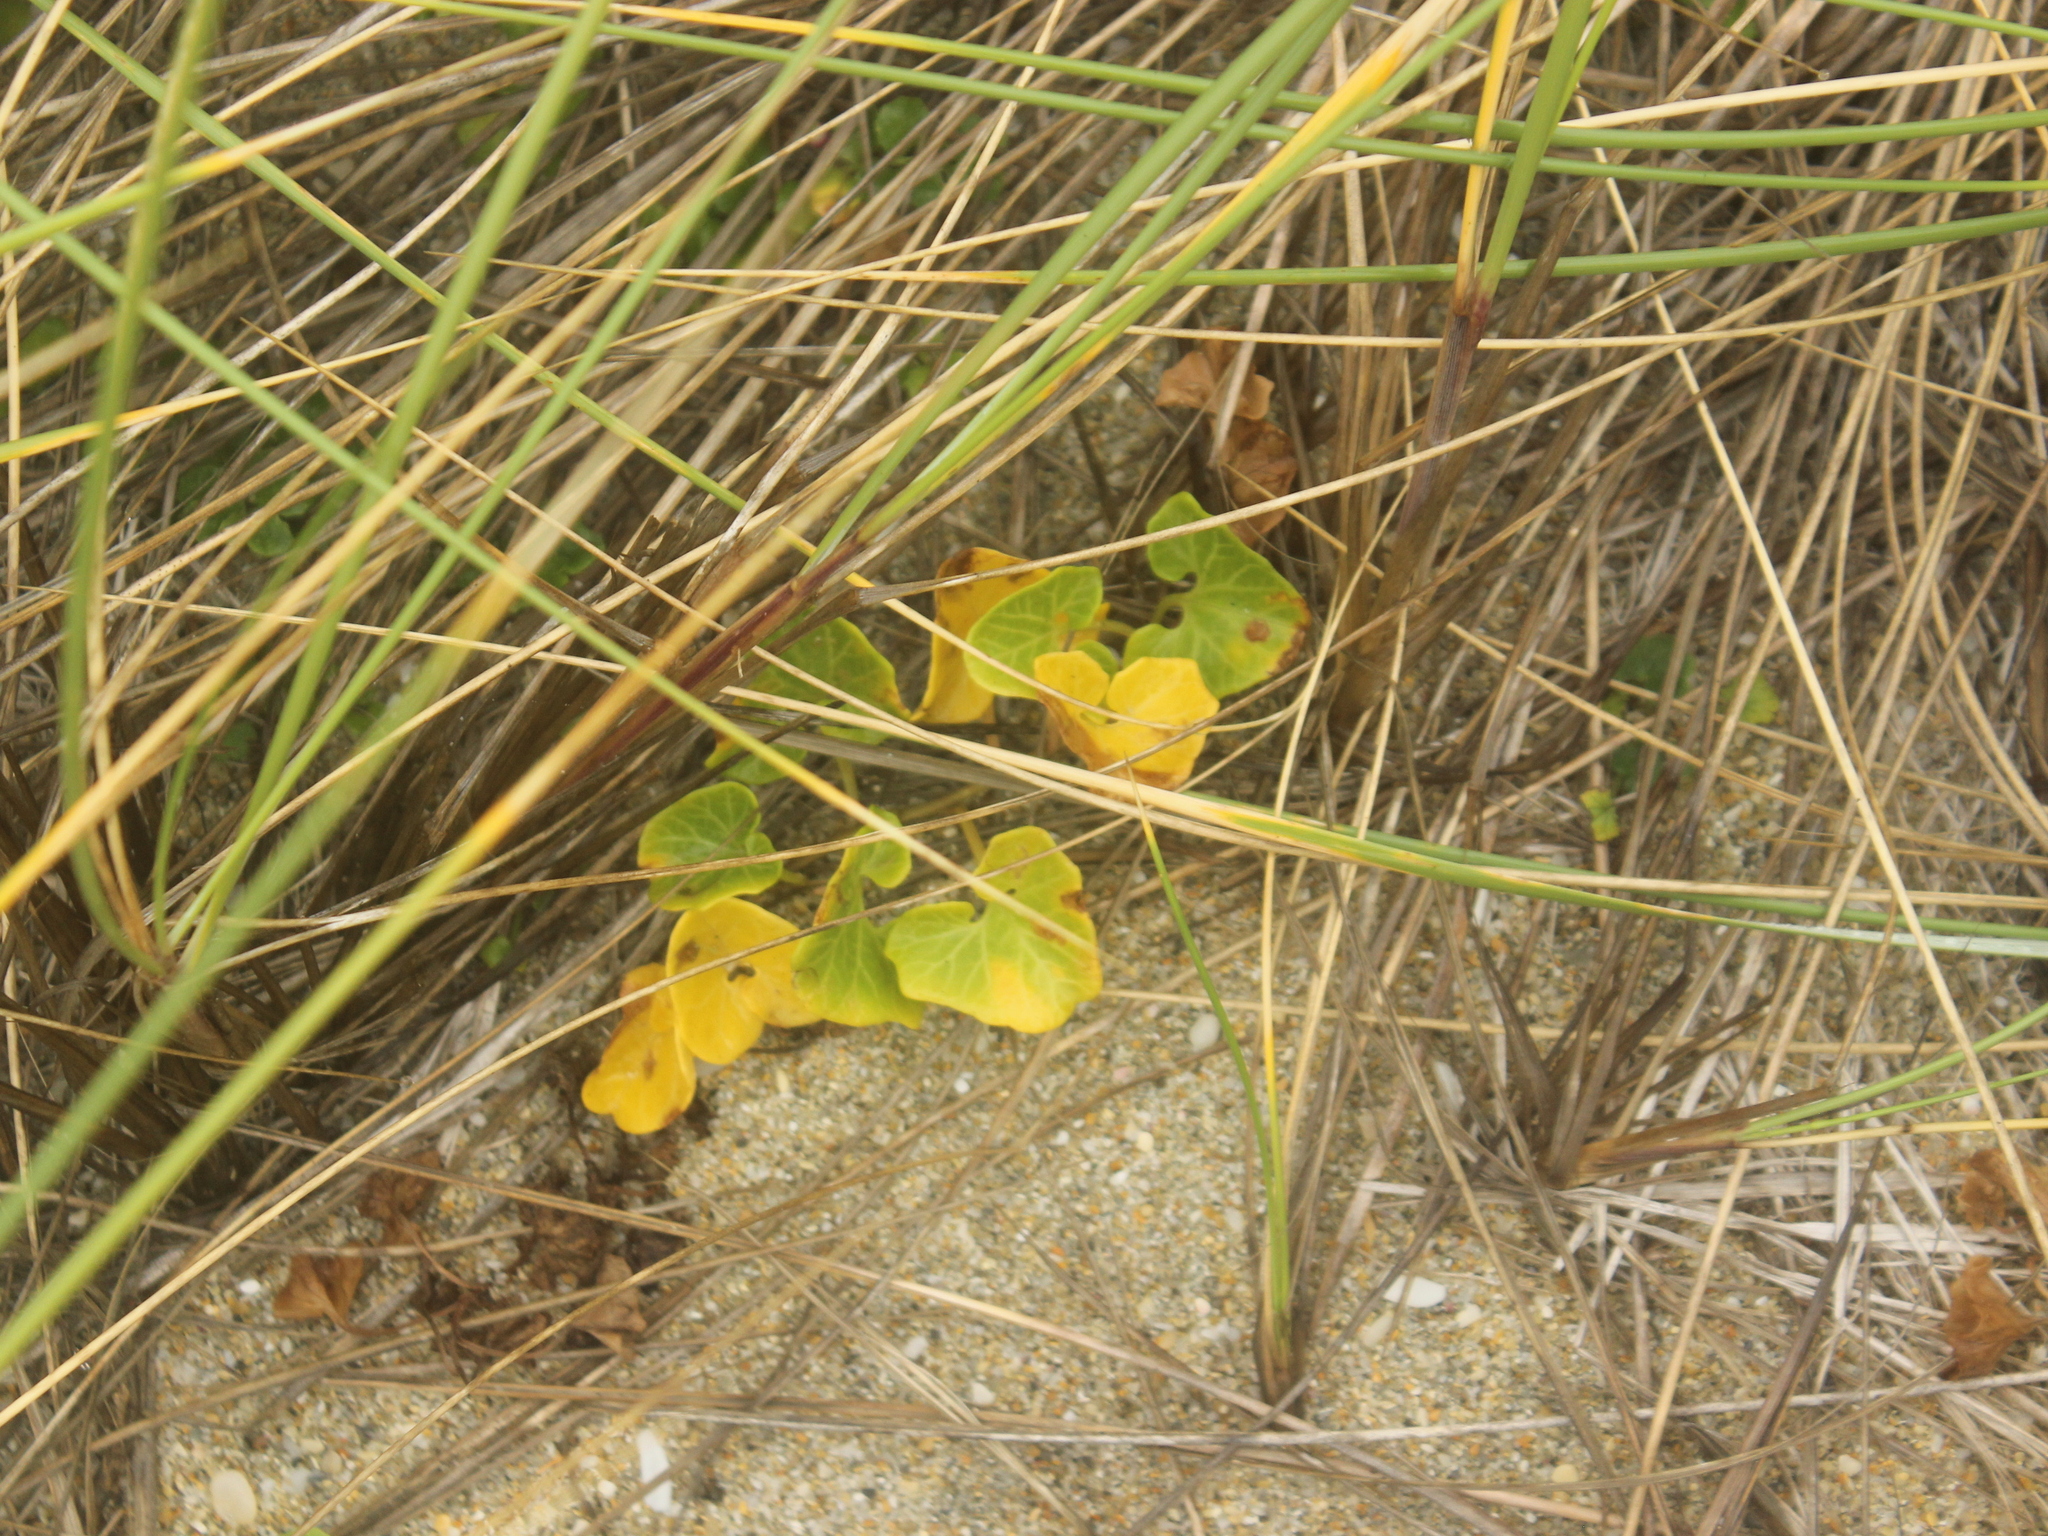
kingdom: Plantae
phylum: Tracheophyta
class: Magnoliopsida
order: Solanales
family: Convolvulaceae
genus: Calystegia
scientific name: Calystegia soldanella
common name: Sea bindweed
